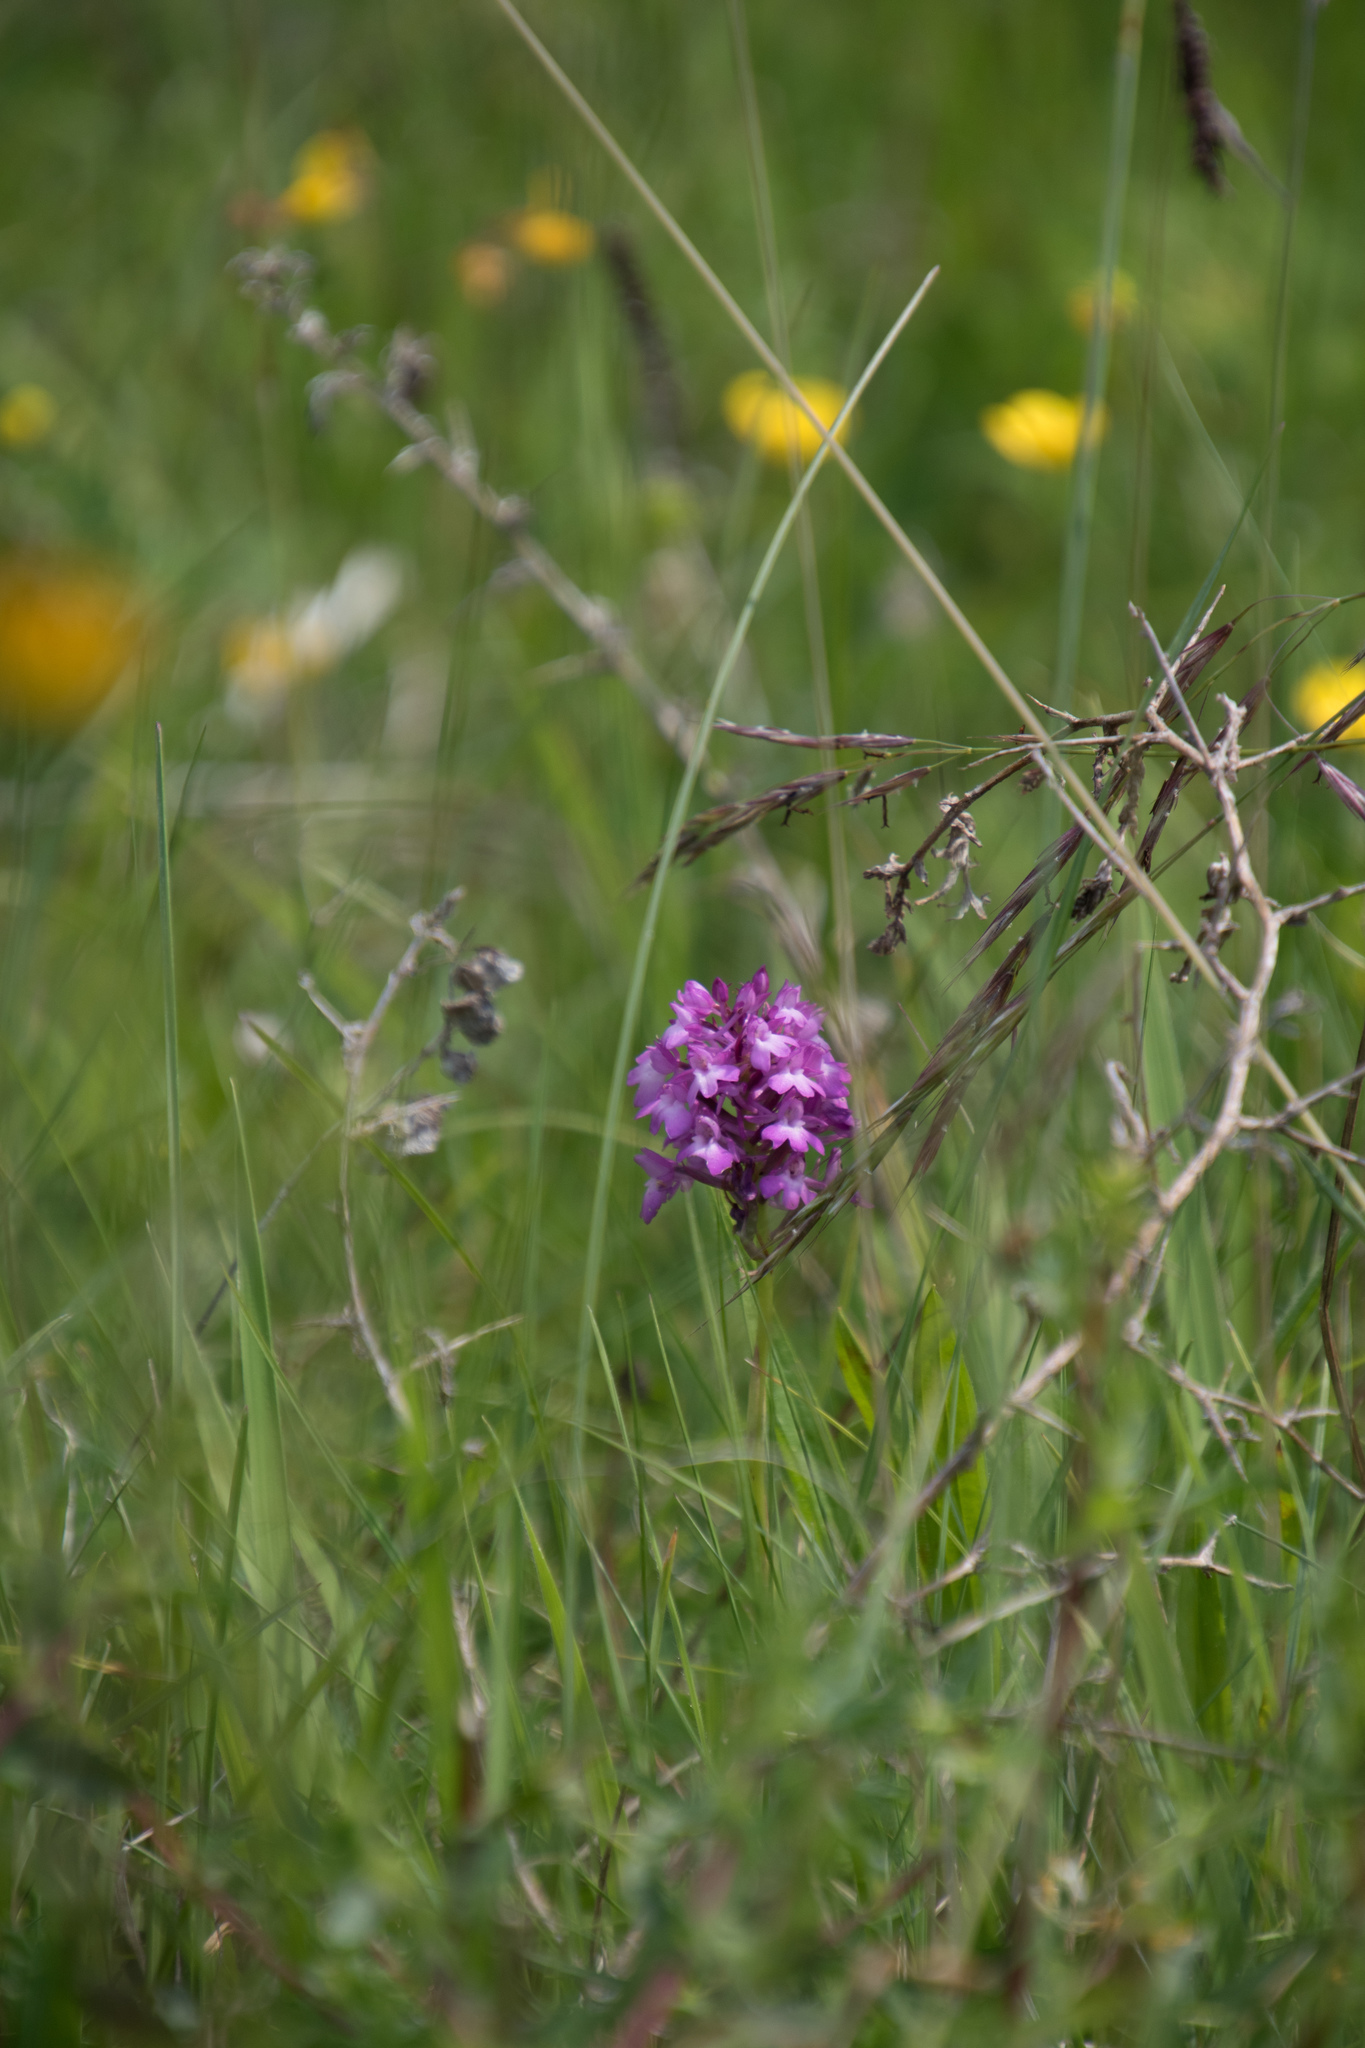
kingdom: Plantae
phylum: Tracheophyta
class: Liliopsida
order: Asparagales
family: Orchidaceae
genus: Anacamptis
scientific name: Anacamptis pyramidalis
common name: Pyramidal orchid
